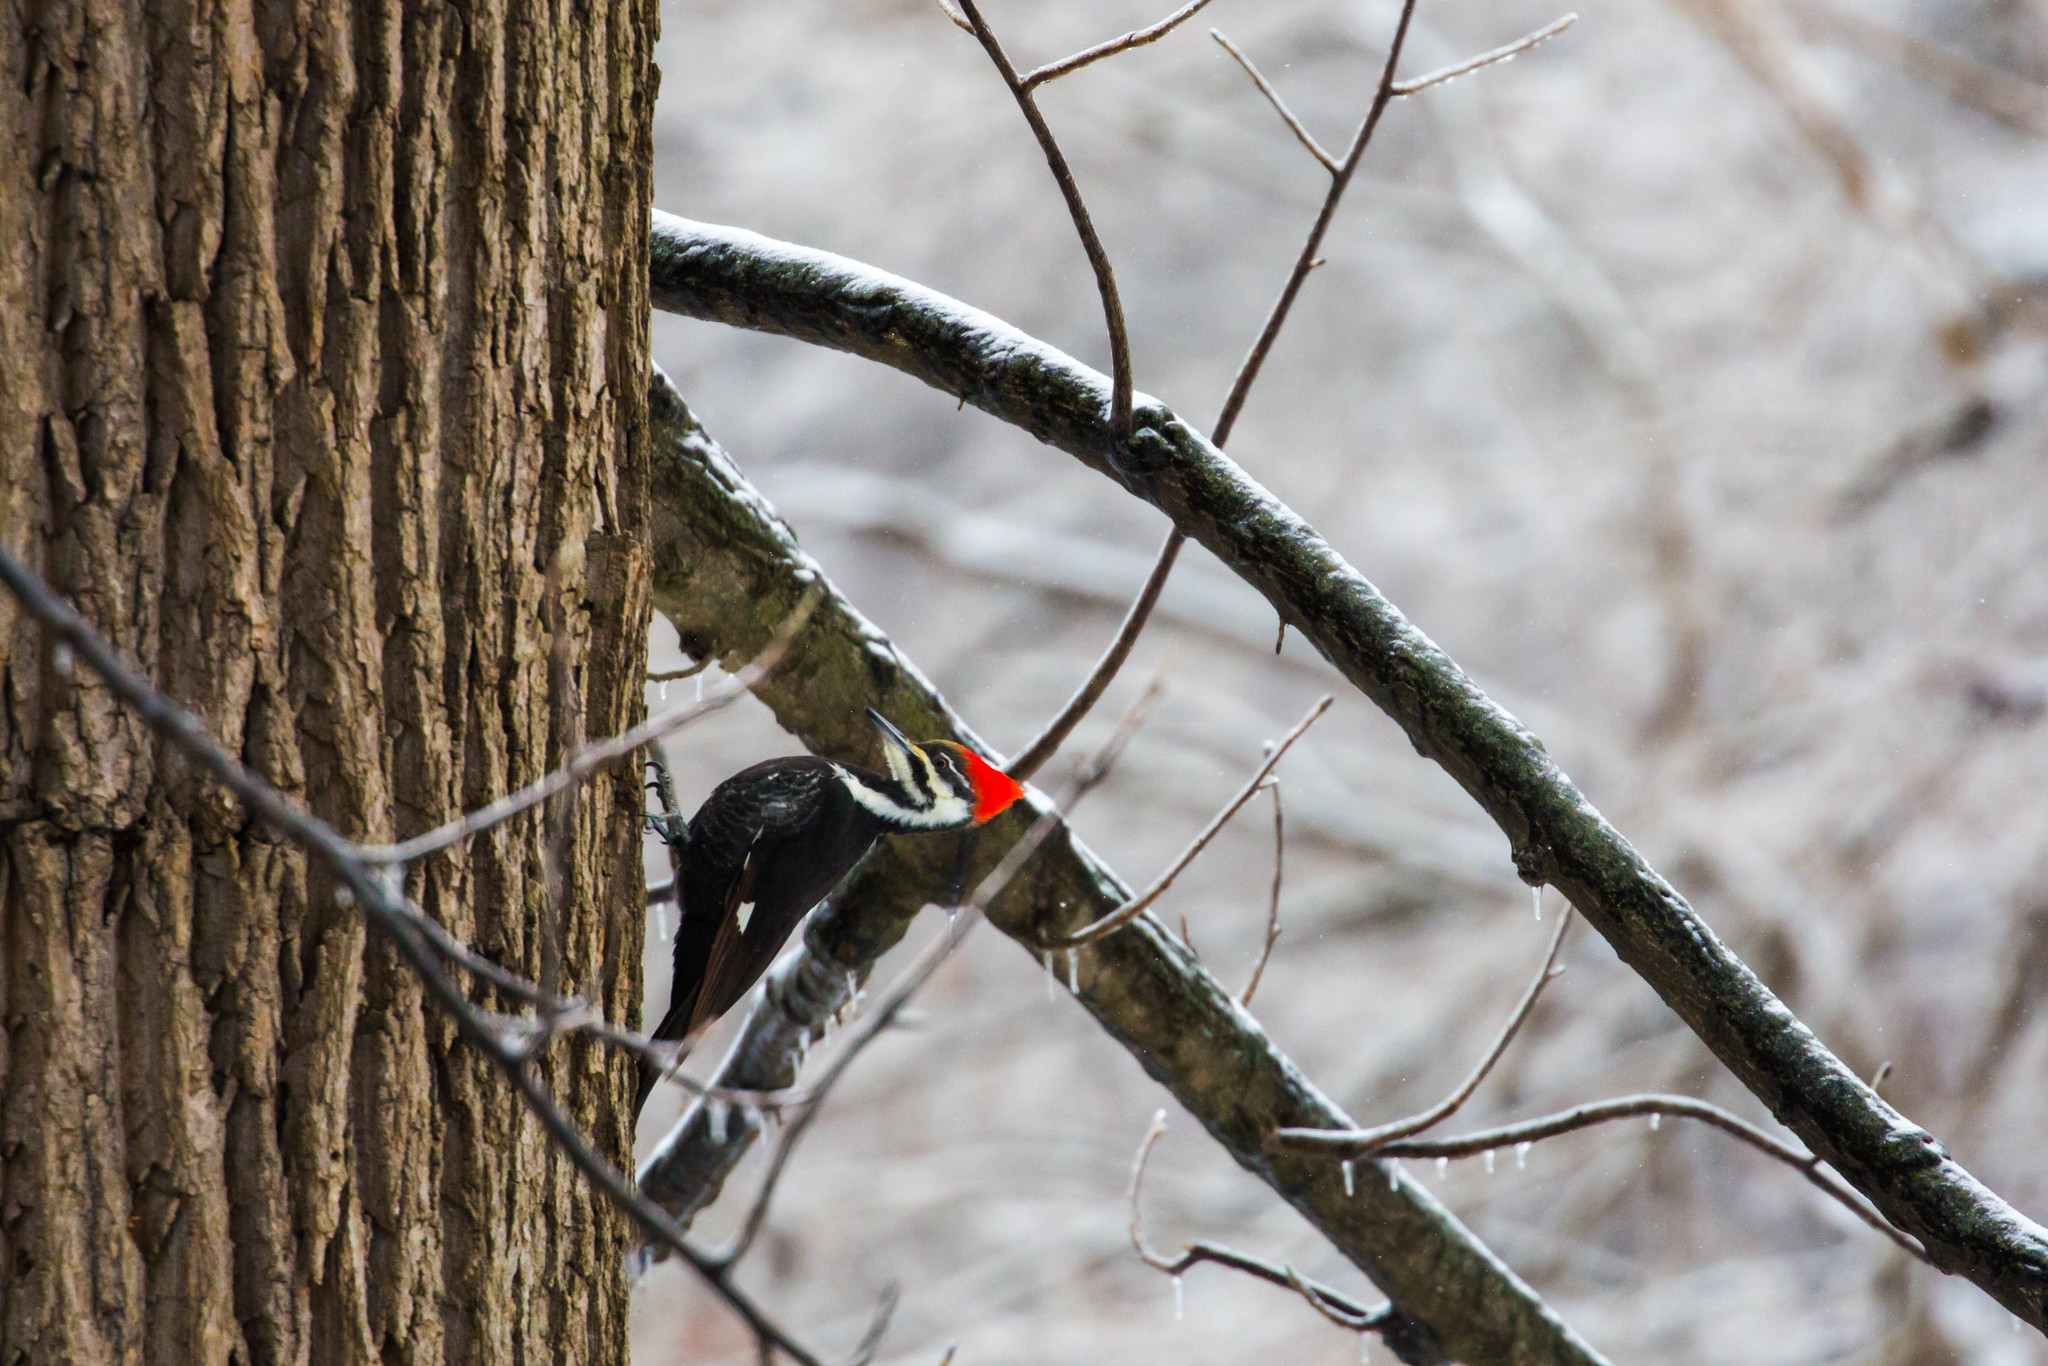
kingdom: Animalia
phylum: Chordata
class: Aves
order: Piciformes
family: Picidae
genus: Dryocopus
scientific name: Dryocopus pileatus
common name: Pileated woodpecker
